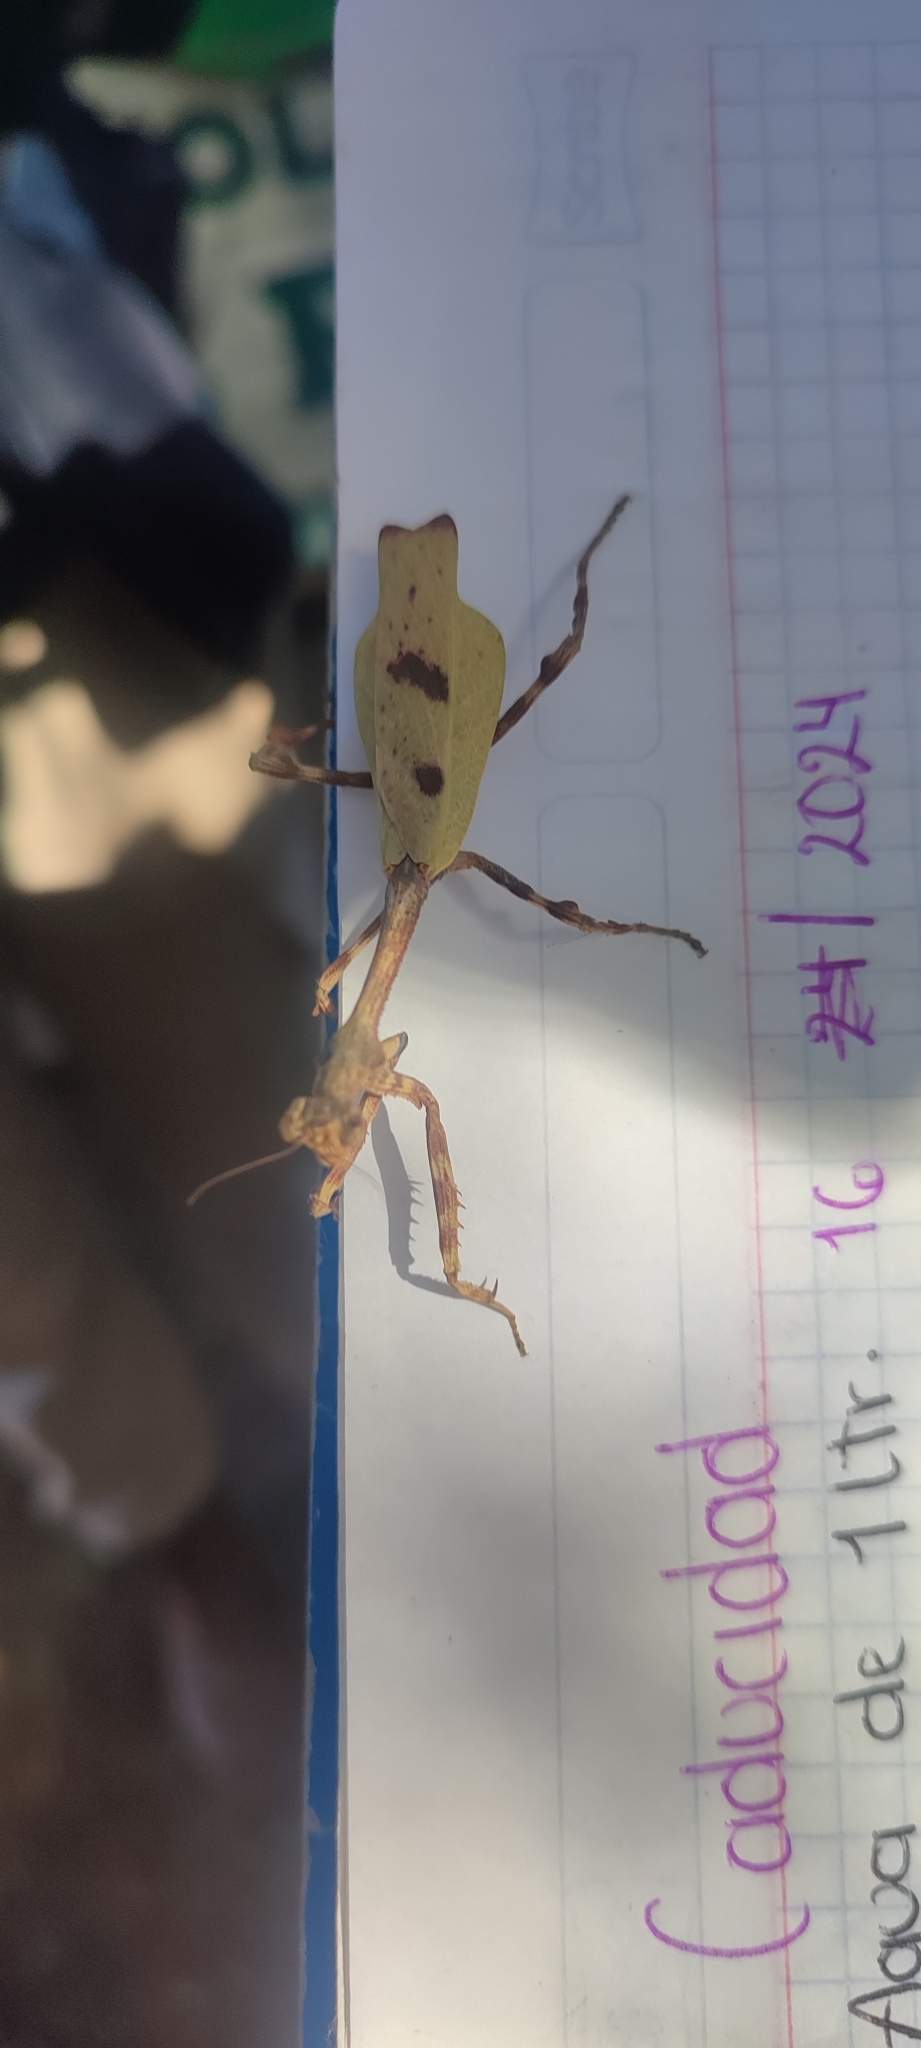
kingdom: Animalia
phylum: Arthropoda
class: Insecta
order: Mantodea
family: Mantidae
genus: Pseudovates
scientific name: Pseudovates tolteca
